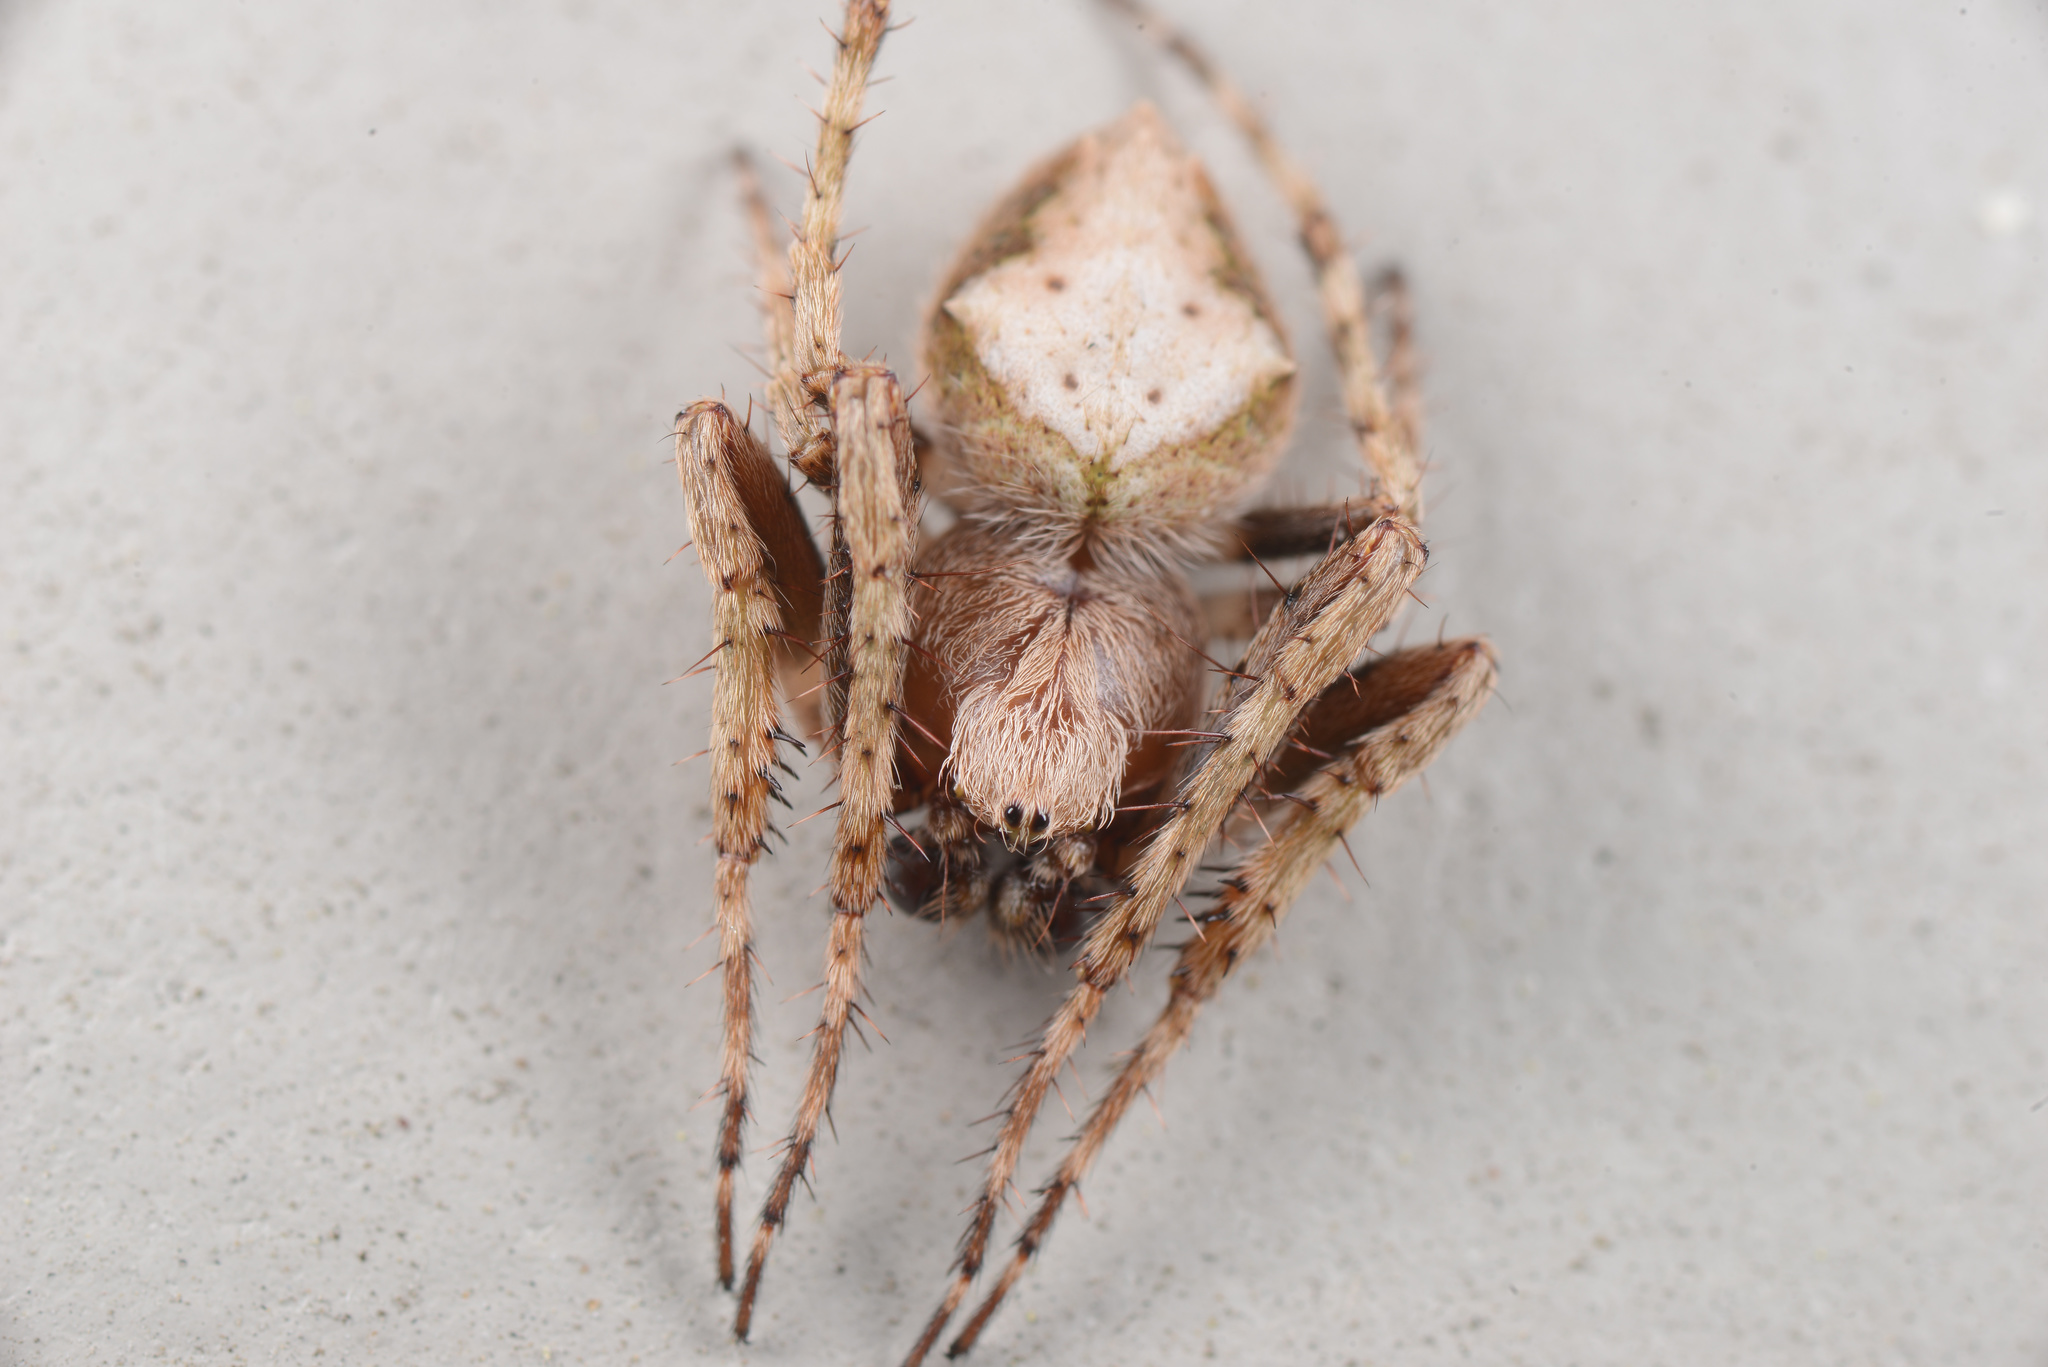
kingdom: Animalia
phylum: Arthropoda
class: Arachnida
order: Araneae
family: Araneidae
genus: Eriophora
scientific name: Eriophora pustulosa
